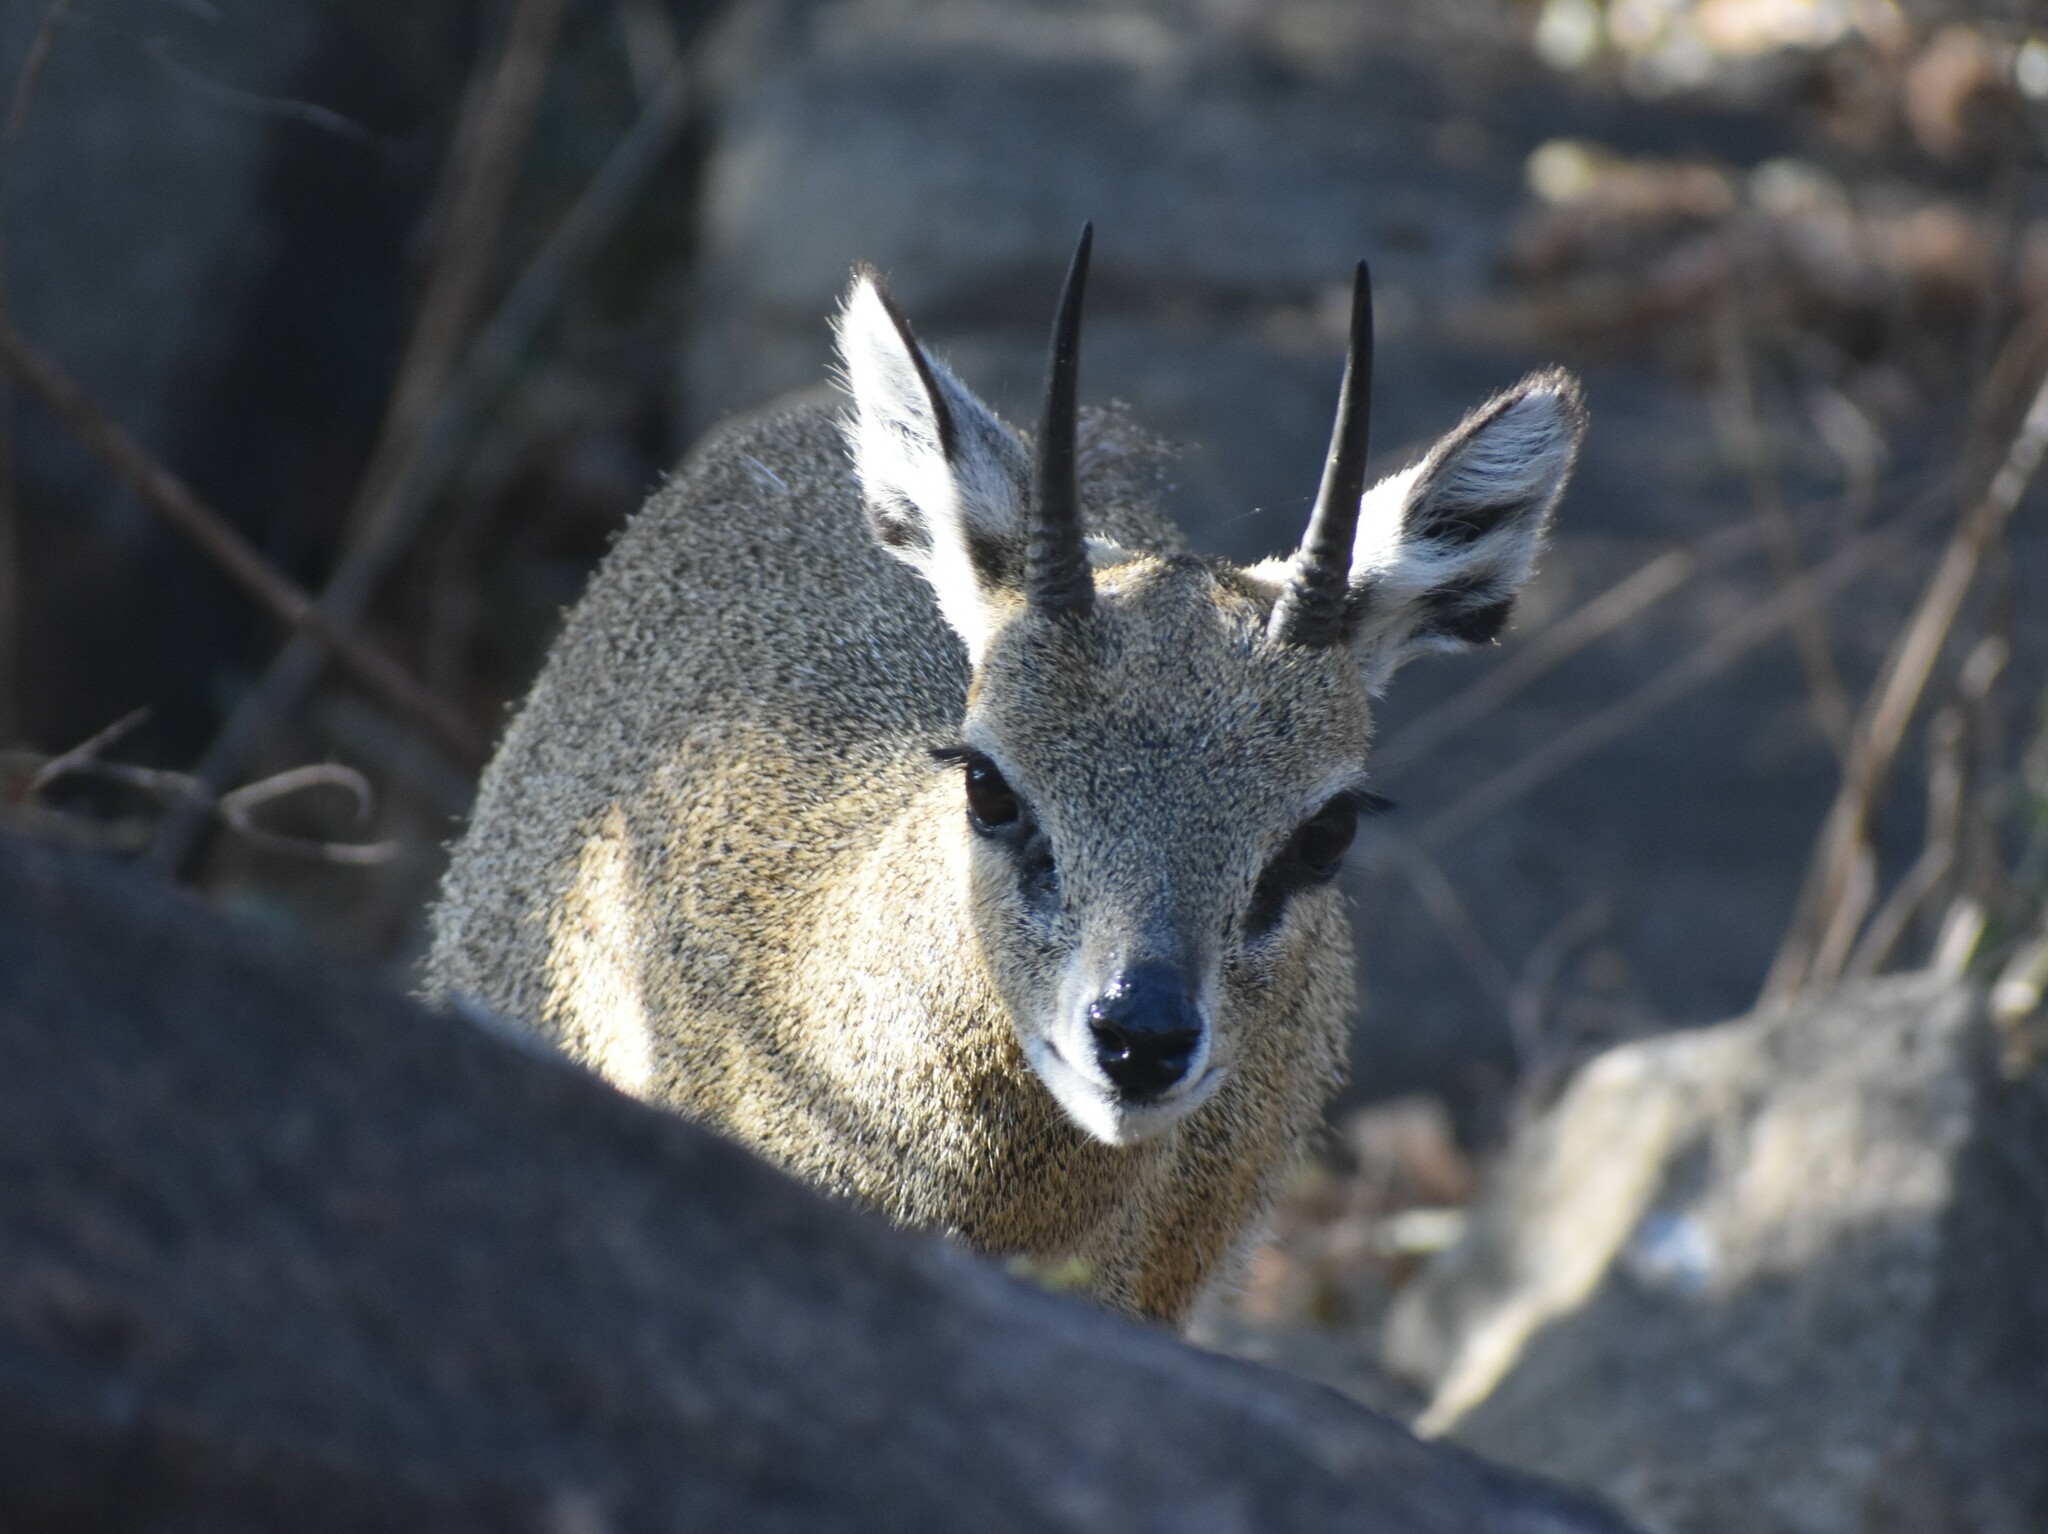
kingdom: Animalia
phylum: Chordata
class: Mammalia
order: Artiodactyla
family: Bovidae
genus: Oreotragus
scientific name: Oreotragus oreotragus
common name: Klipspringer
